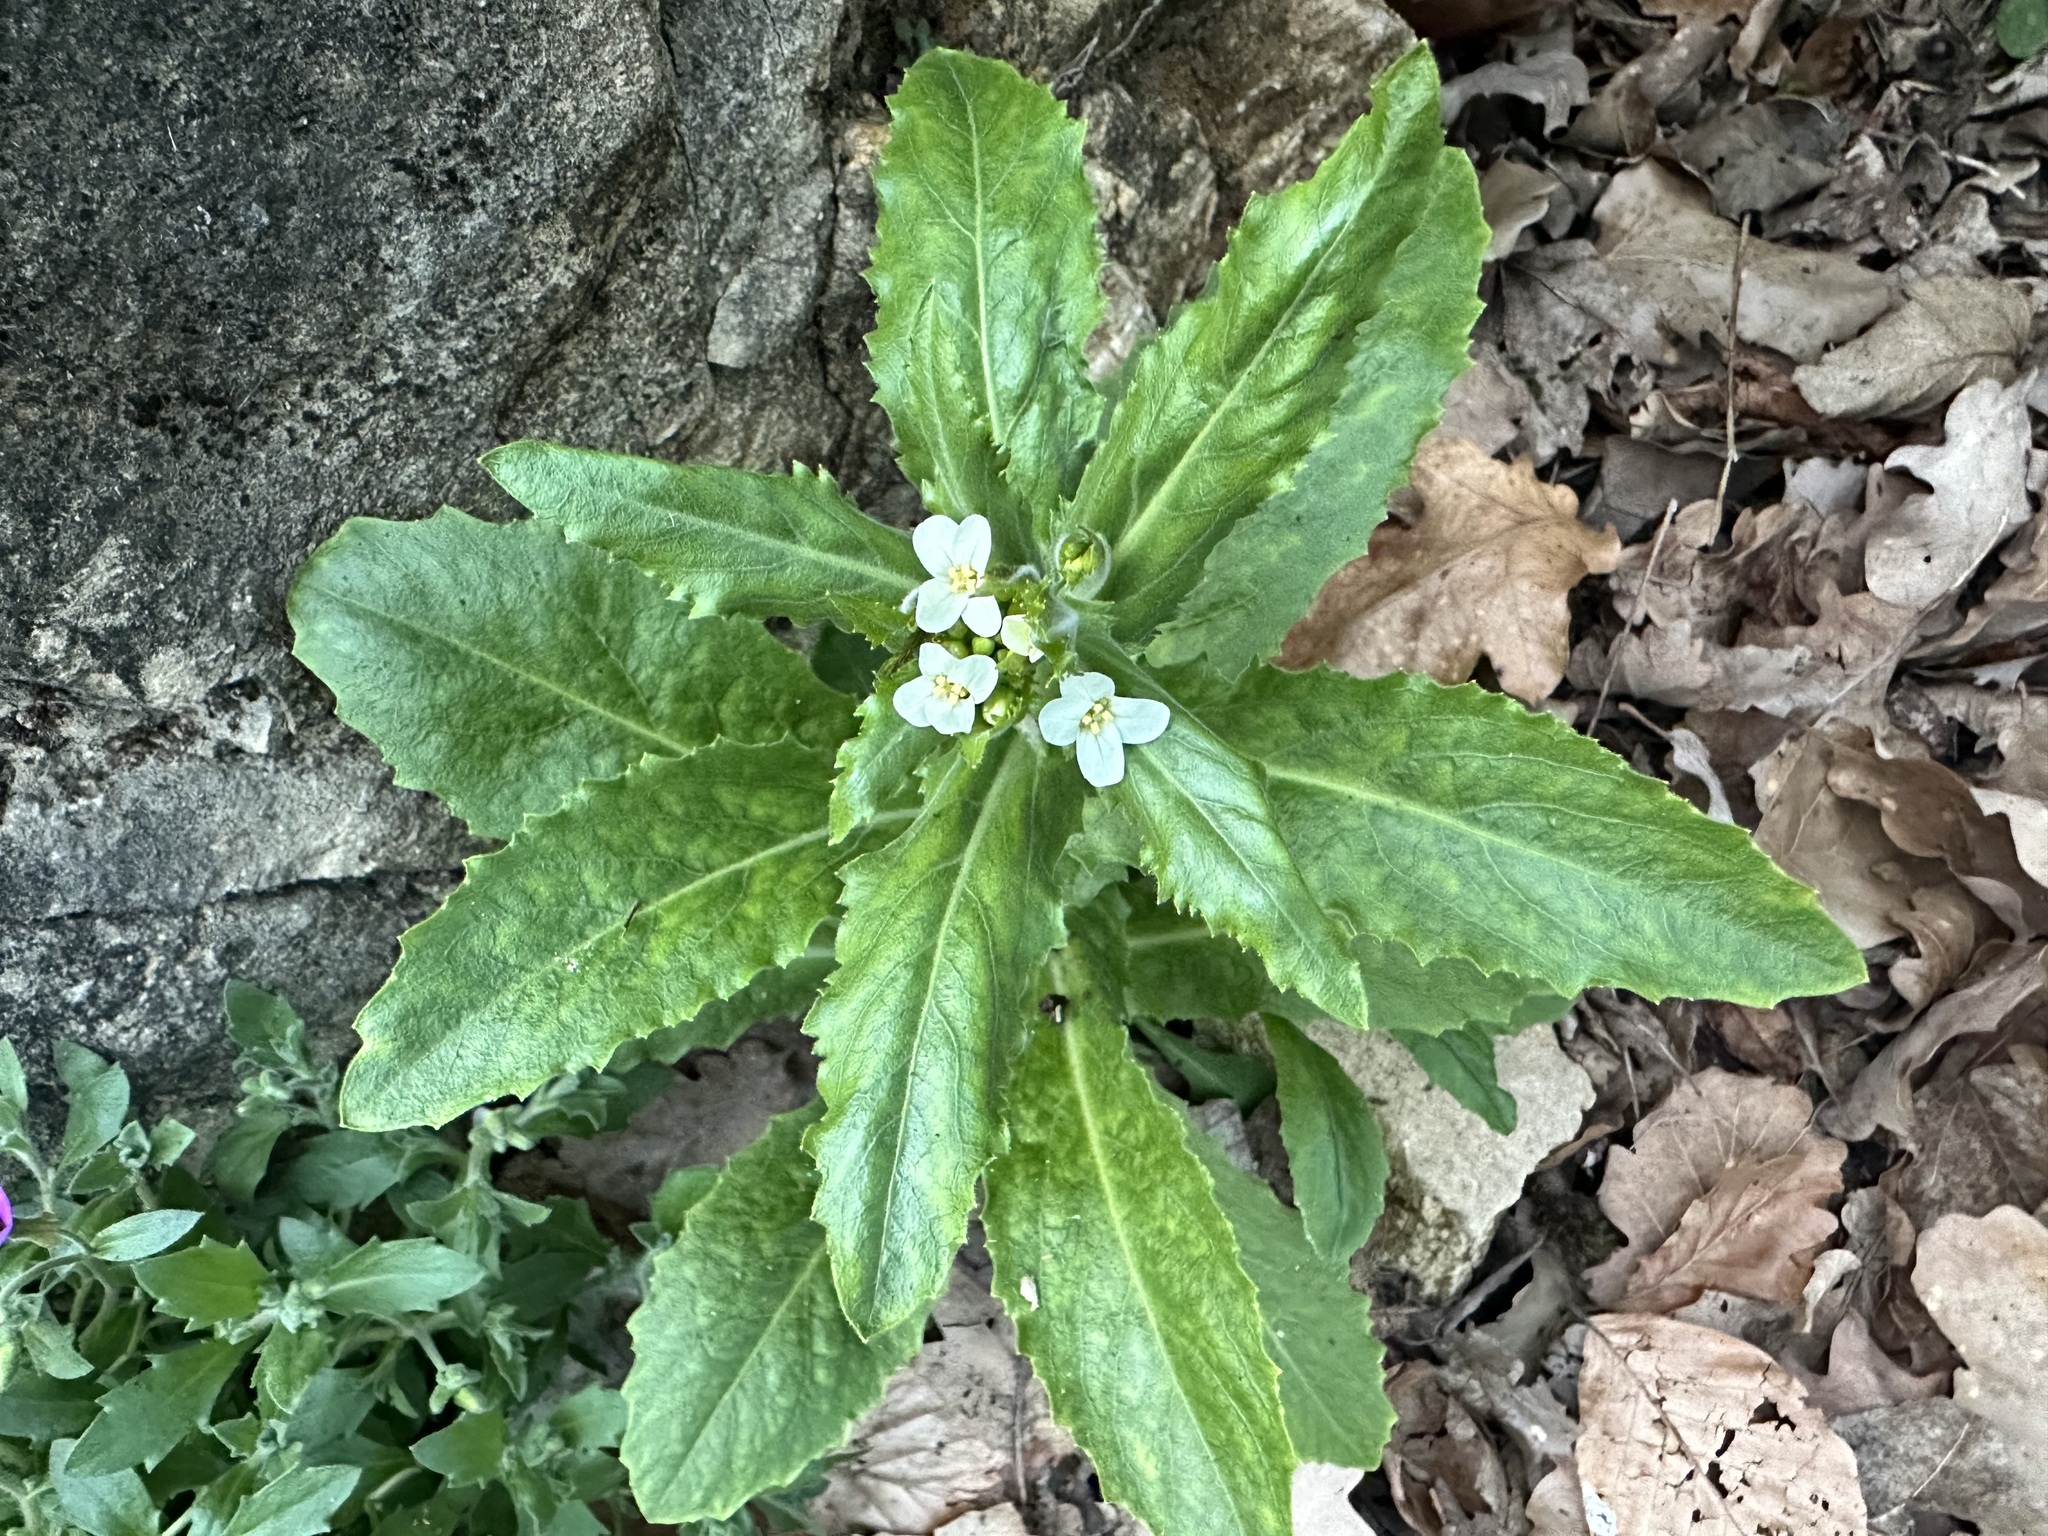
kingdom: Plantae
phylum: Tracheophyta
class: Magnoliopsida
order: Brassicales
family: Brassicaceae
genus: Pseudoturritis
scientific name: Pseudoturritis turrita
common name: Tower cress
